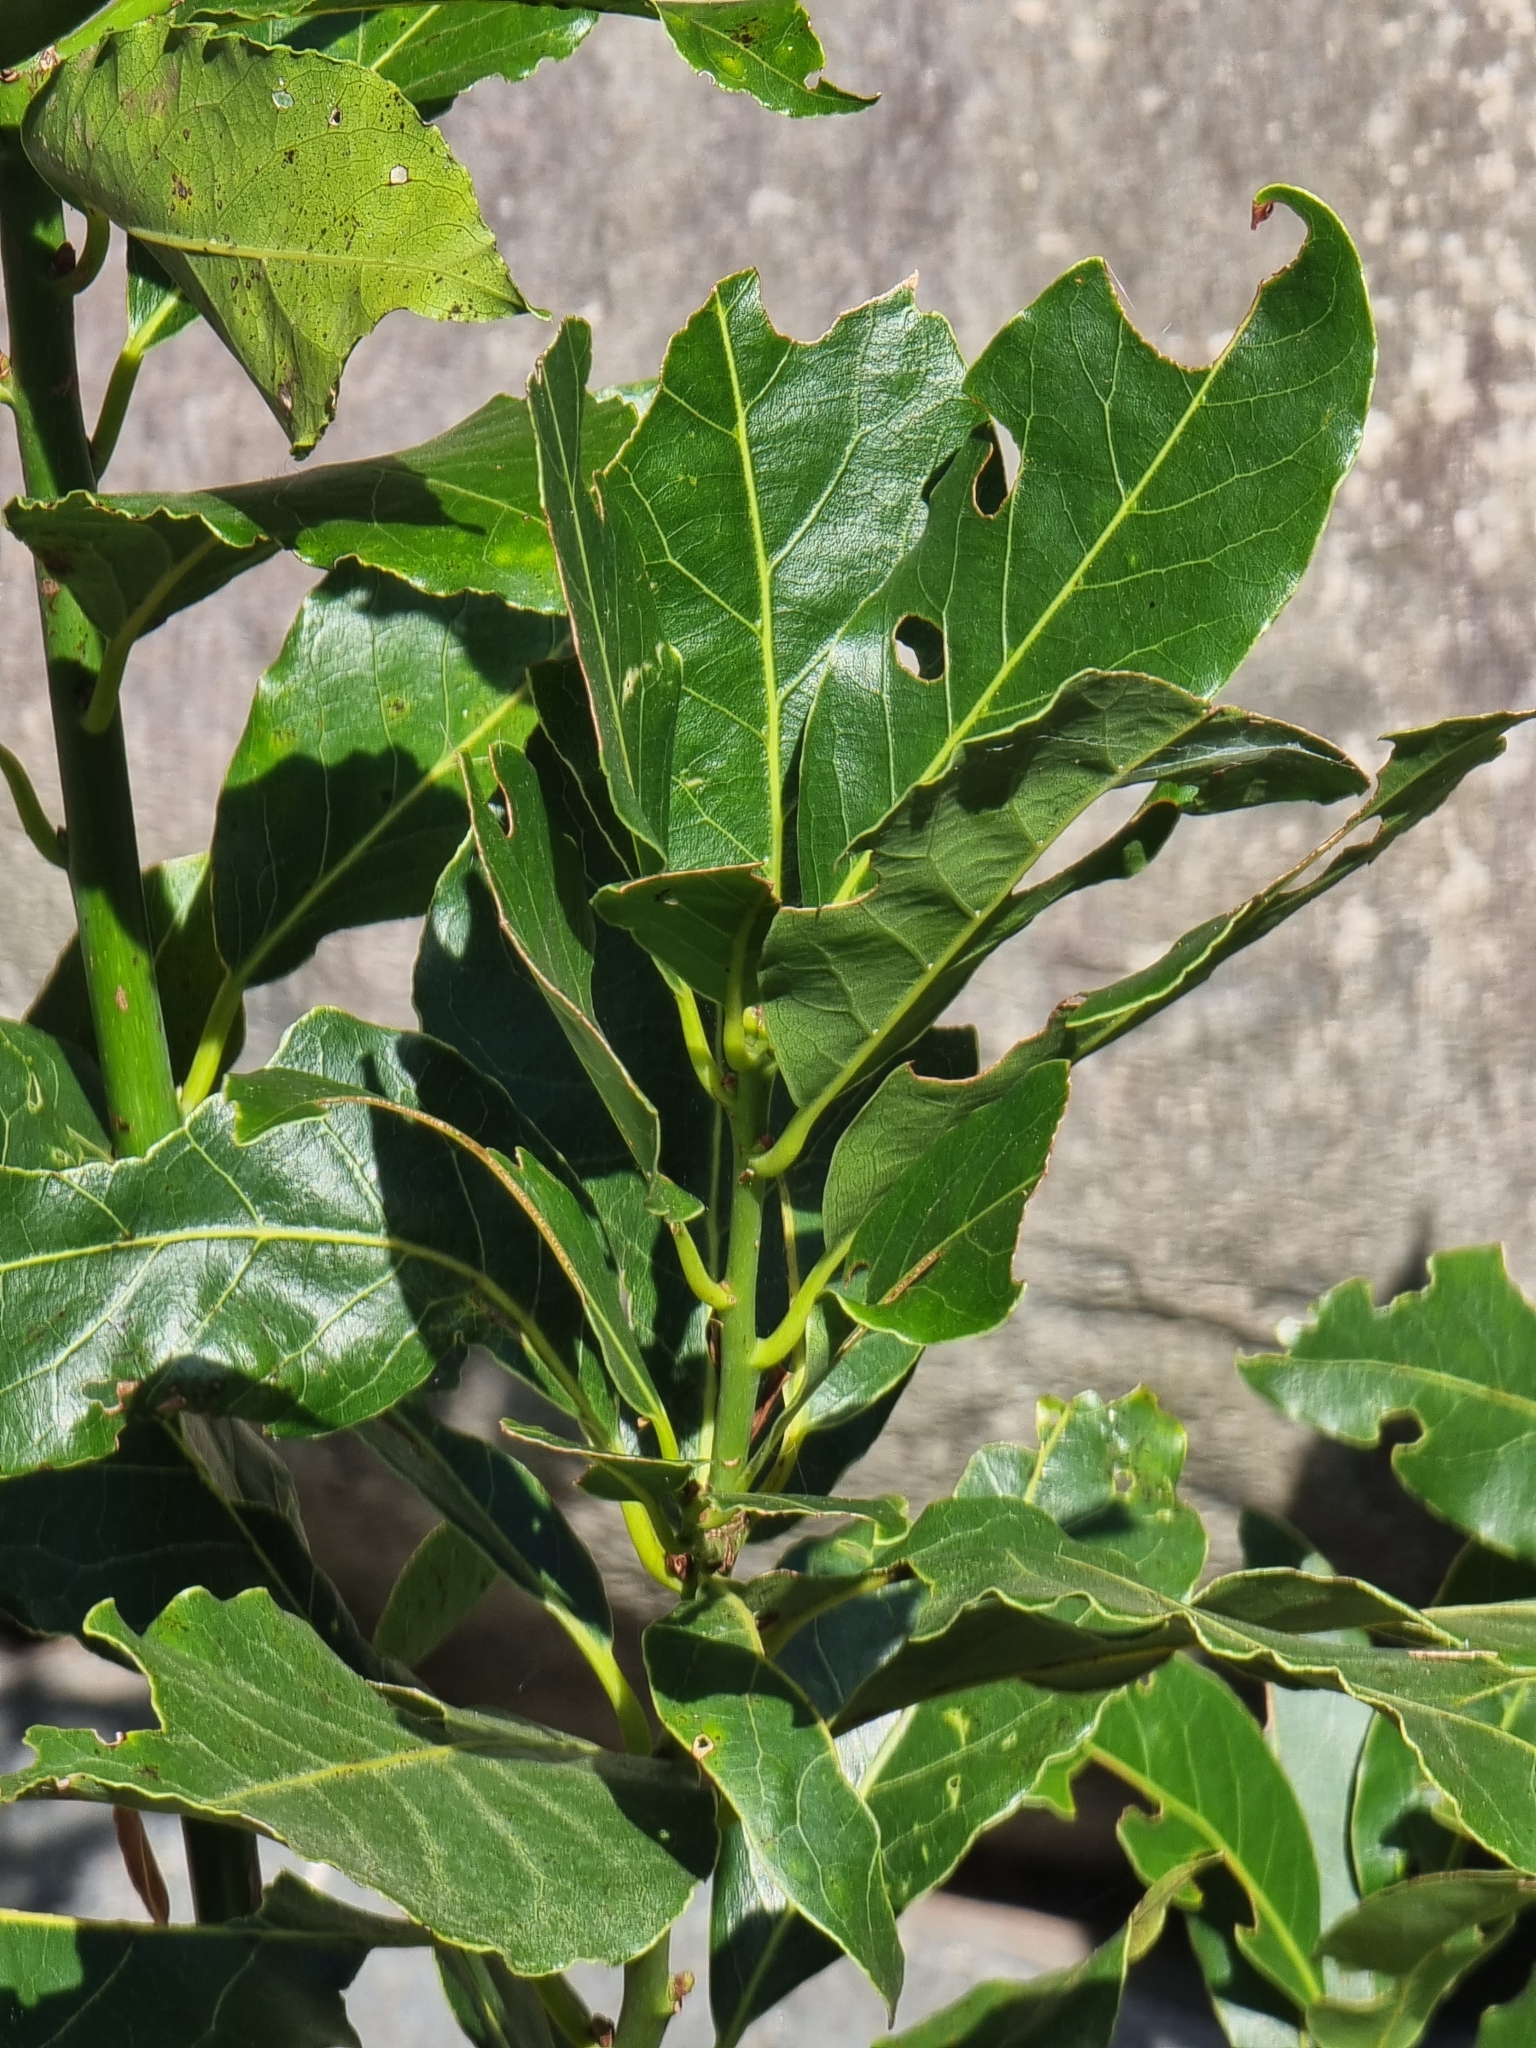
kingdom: Plantae
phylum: Tracheophyta
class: Magnoliopsida
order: Laurales
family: Lauraceae
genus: Laurus
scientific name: Laurus novocanariensis
